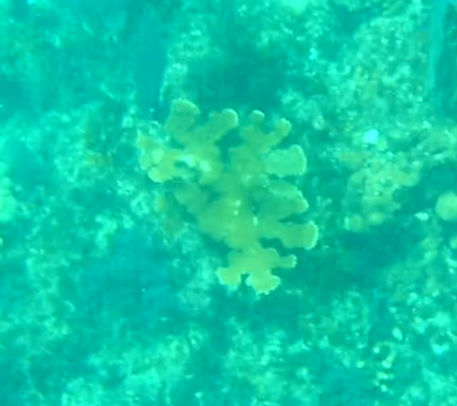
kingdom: Animalia
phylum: Cnidaria
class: Anthozoa
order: Scleractinia
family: Acroporidae
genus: Acropora
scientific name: Acropora palmata
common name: Elkhorn coral
